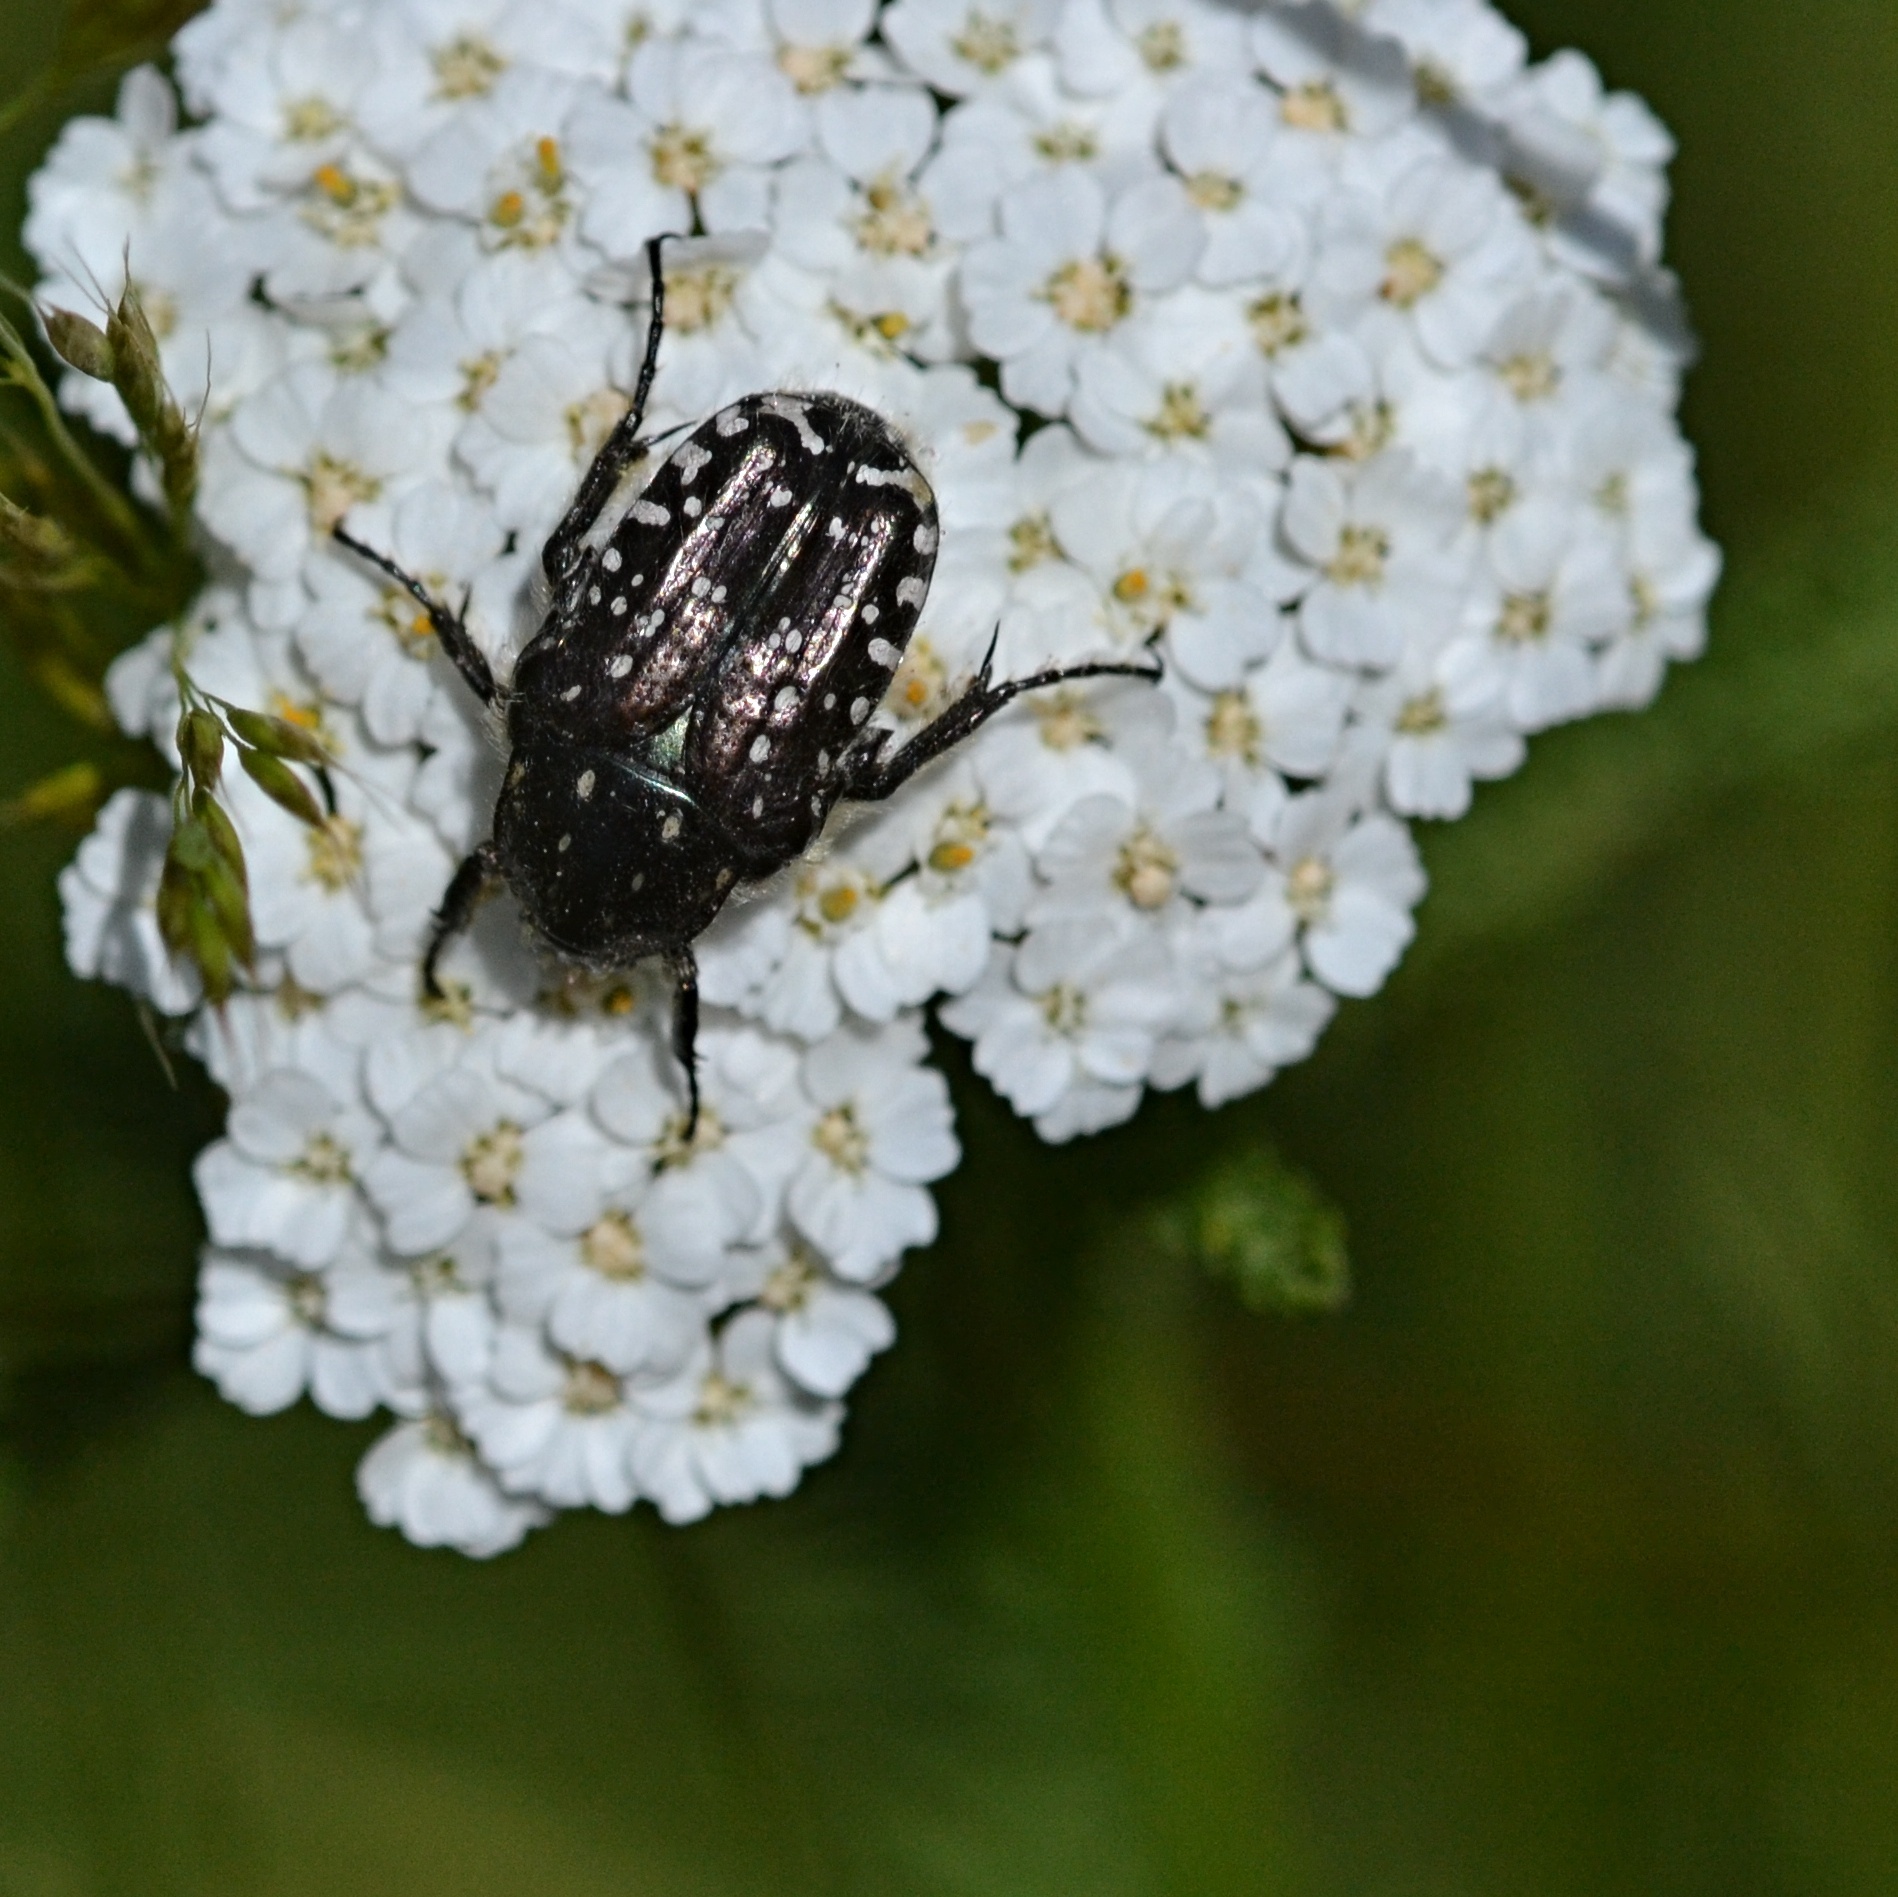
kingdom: Animalia
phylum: Arthropoda
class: Insecta
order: Coleoptera
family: Scarabaeidae
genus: Oxythyrea
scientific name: Oxythyrea funesta
